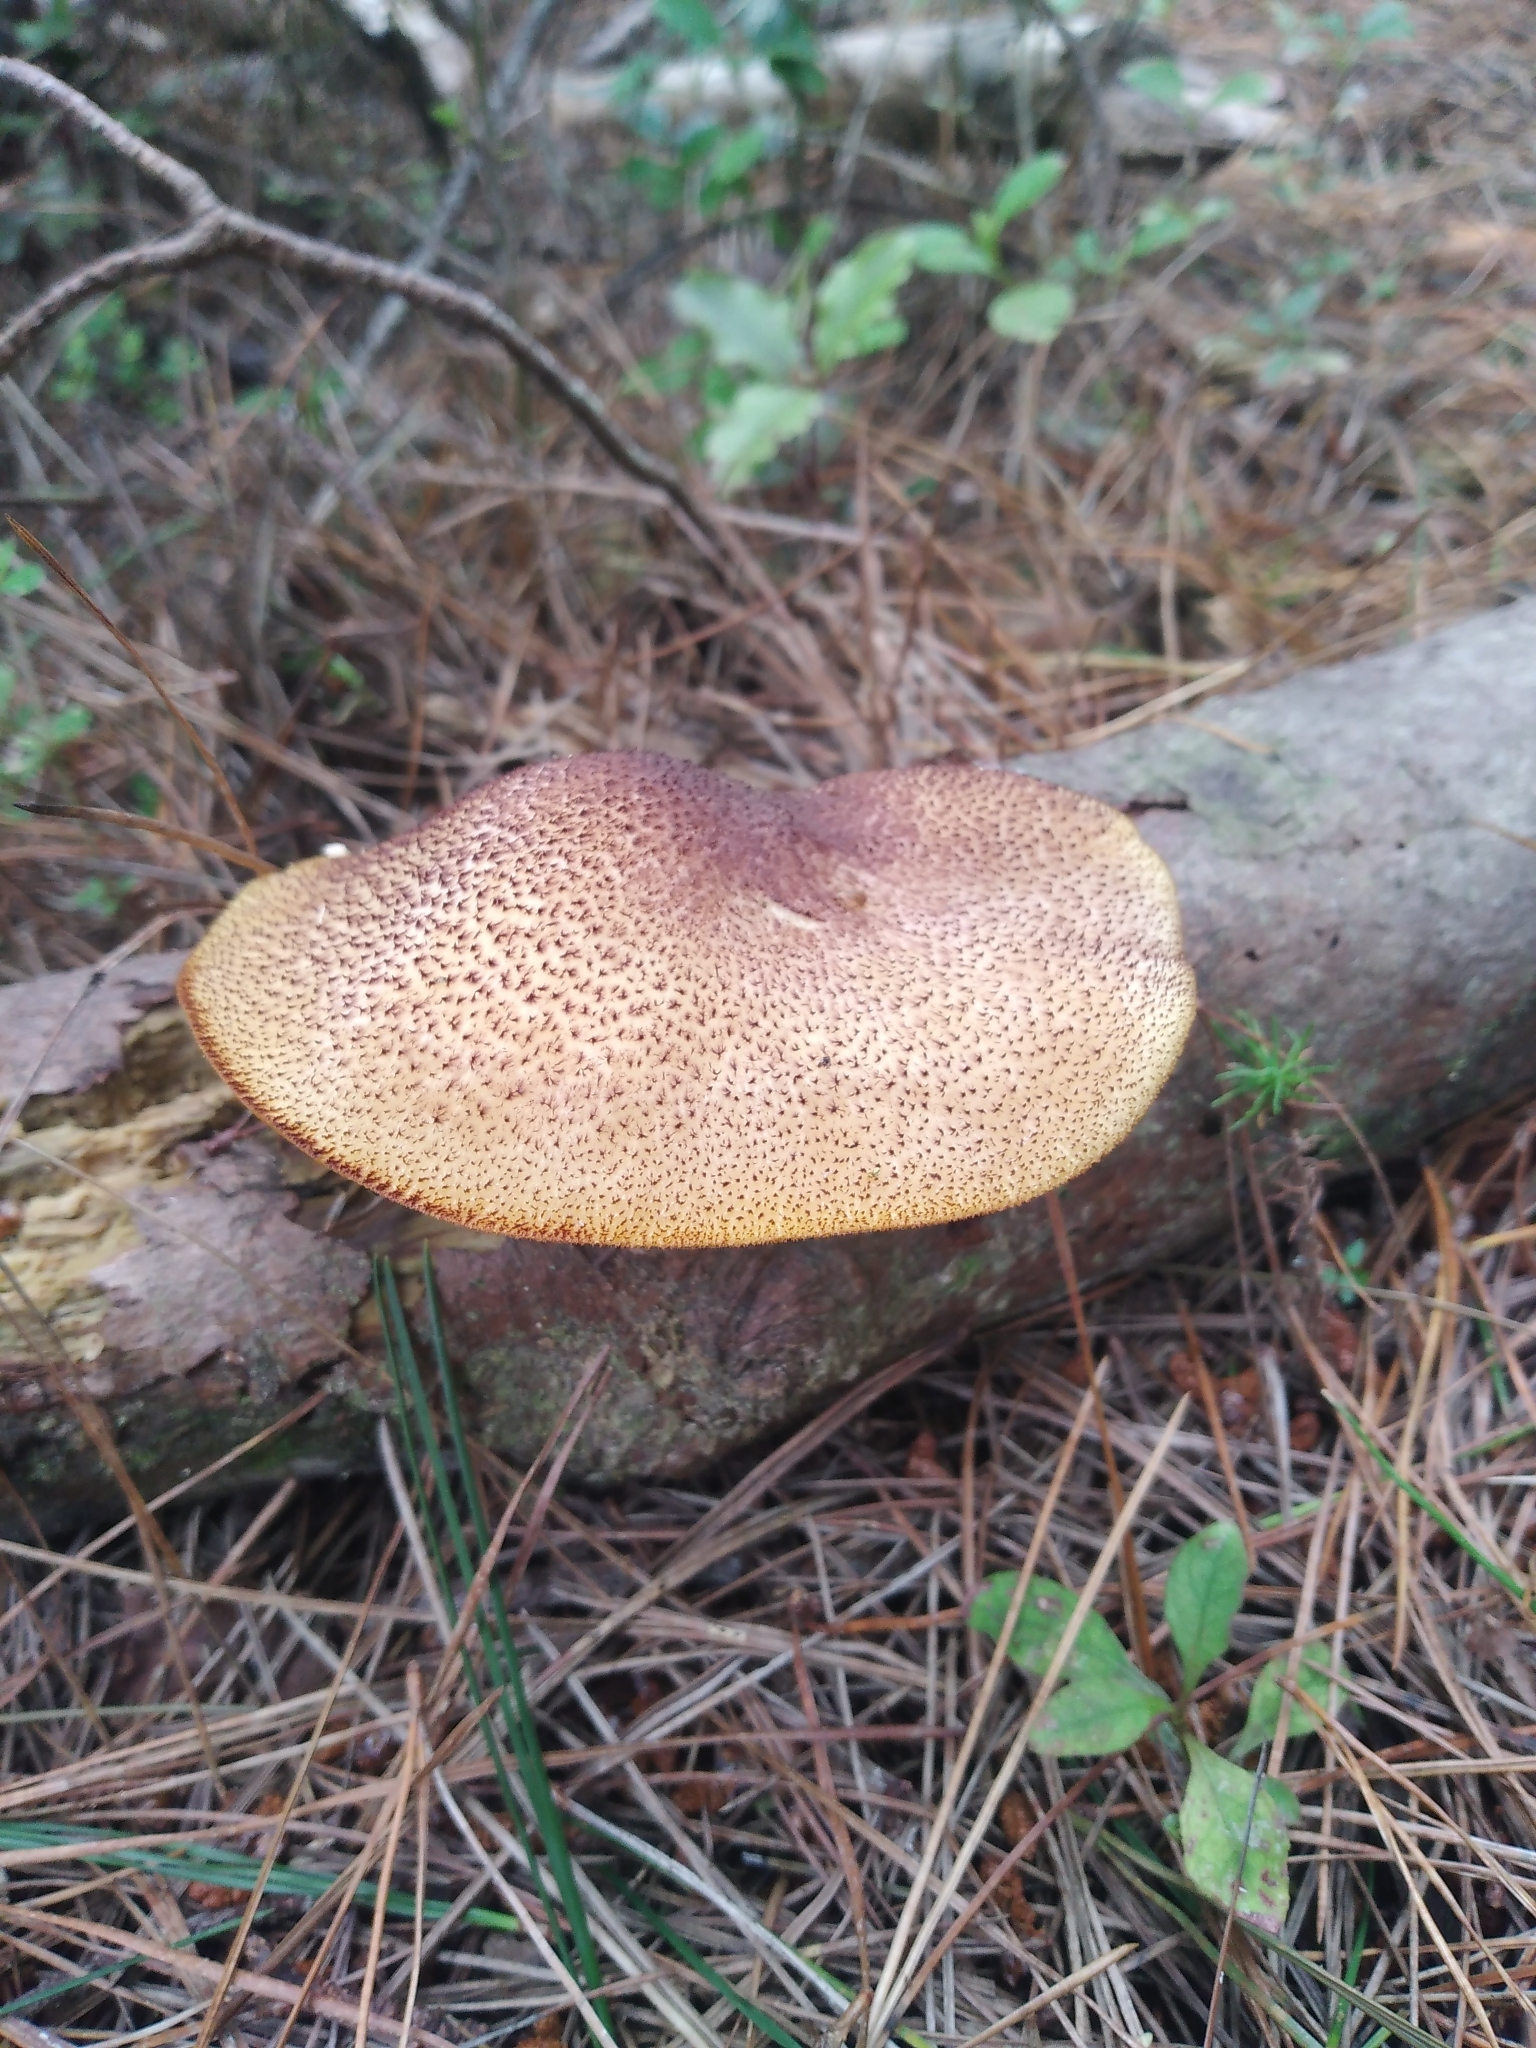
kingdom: Fungi
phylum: Basidiomycota
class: Agaricomycetes
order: Agaricales
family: Tricholomataceae
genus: Tricholomopsis
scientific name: Tricholomopsis ornaticeps
